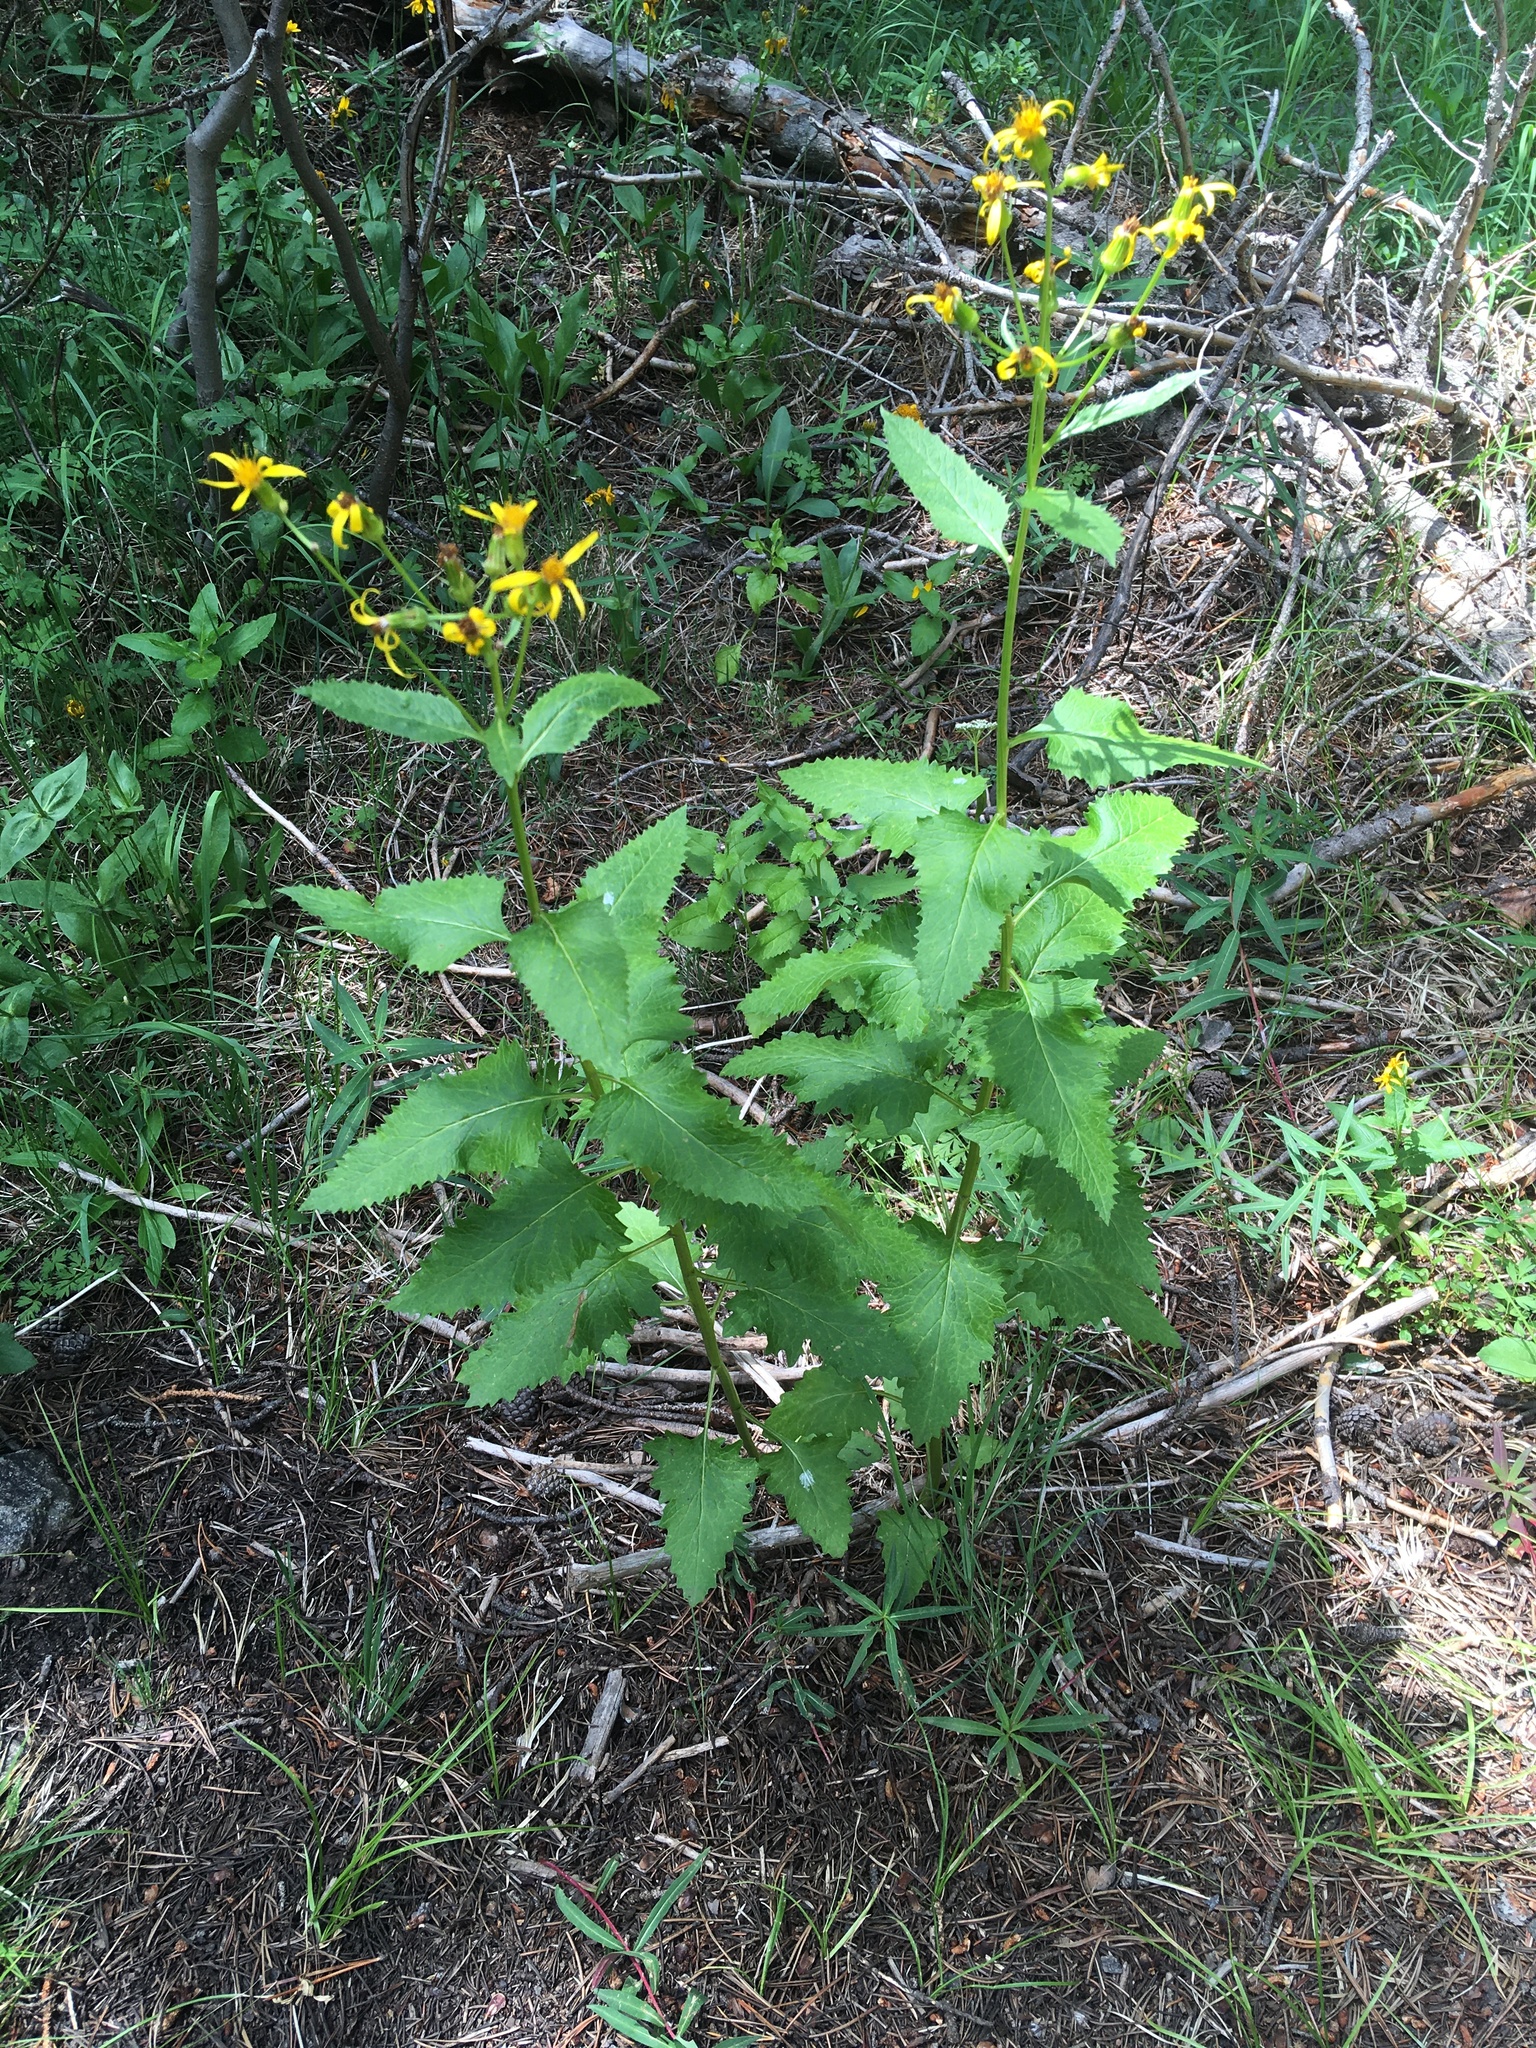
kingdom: Plantae
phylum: Tracheophyta
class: Magnoliopsida
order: Asterales
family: Asteraceae
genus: Senecio
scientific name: Senecio triangularis
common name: Arrowleaf butterweed
